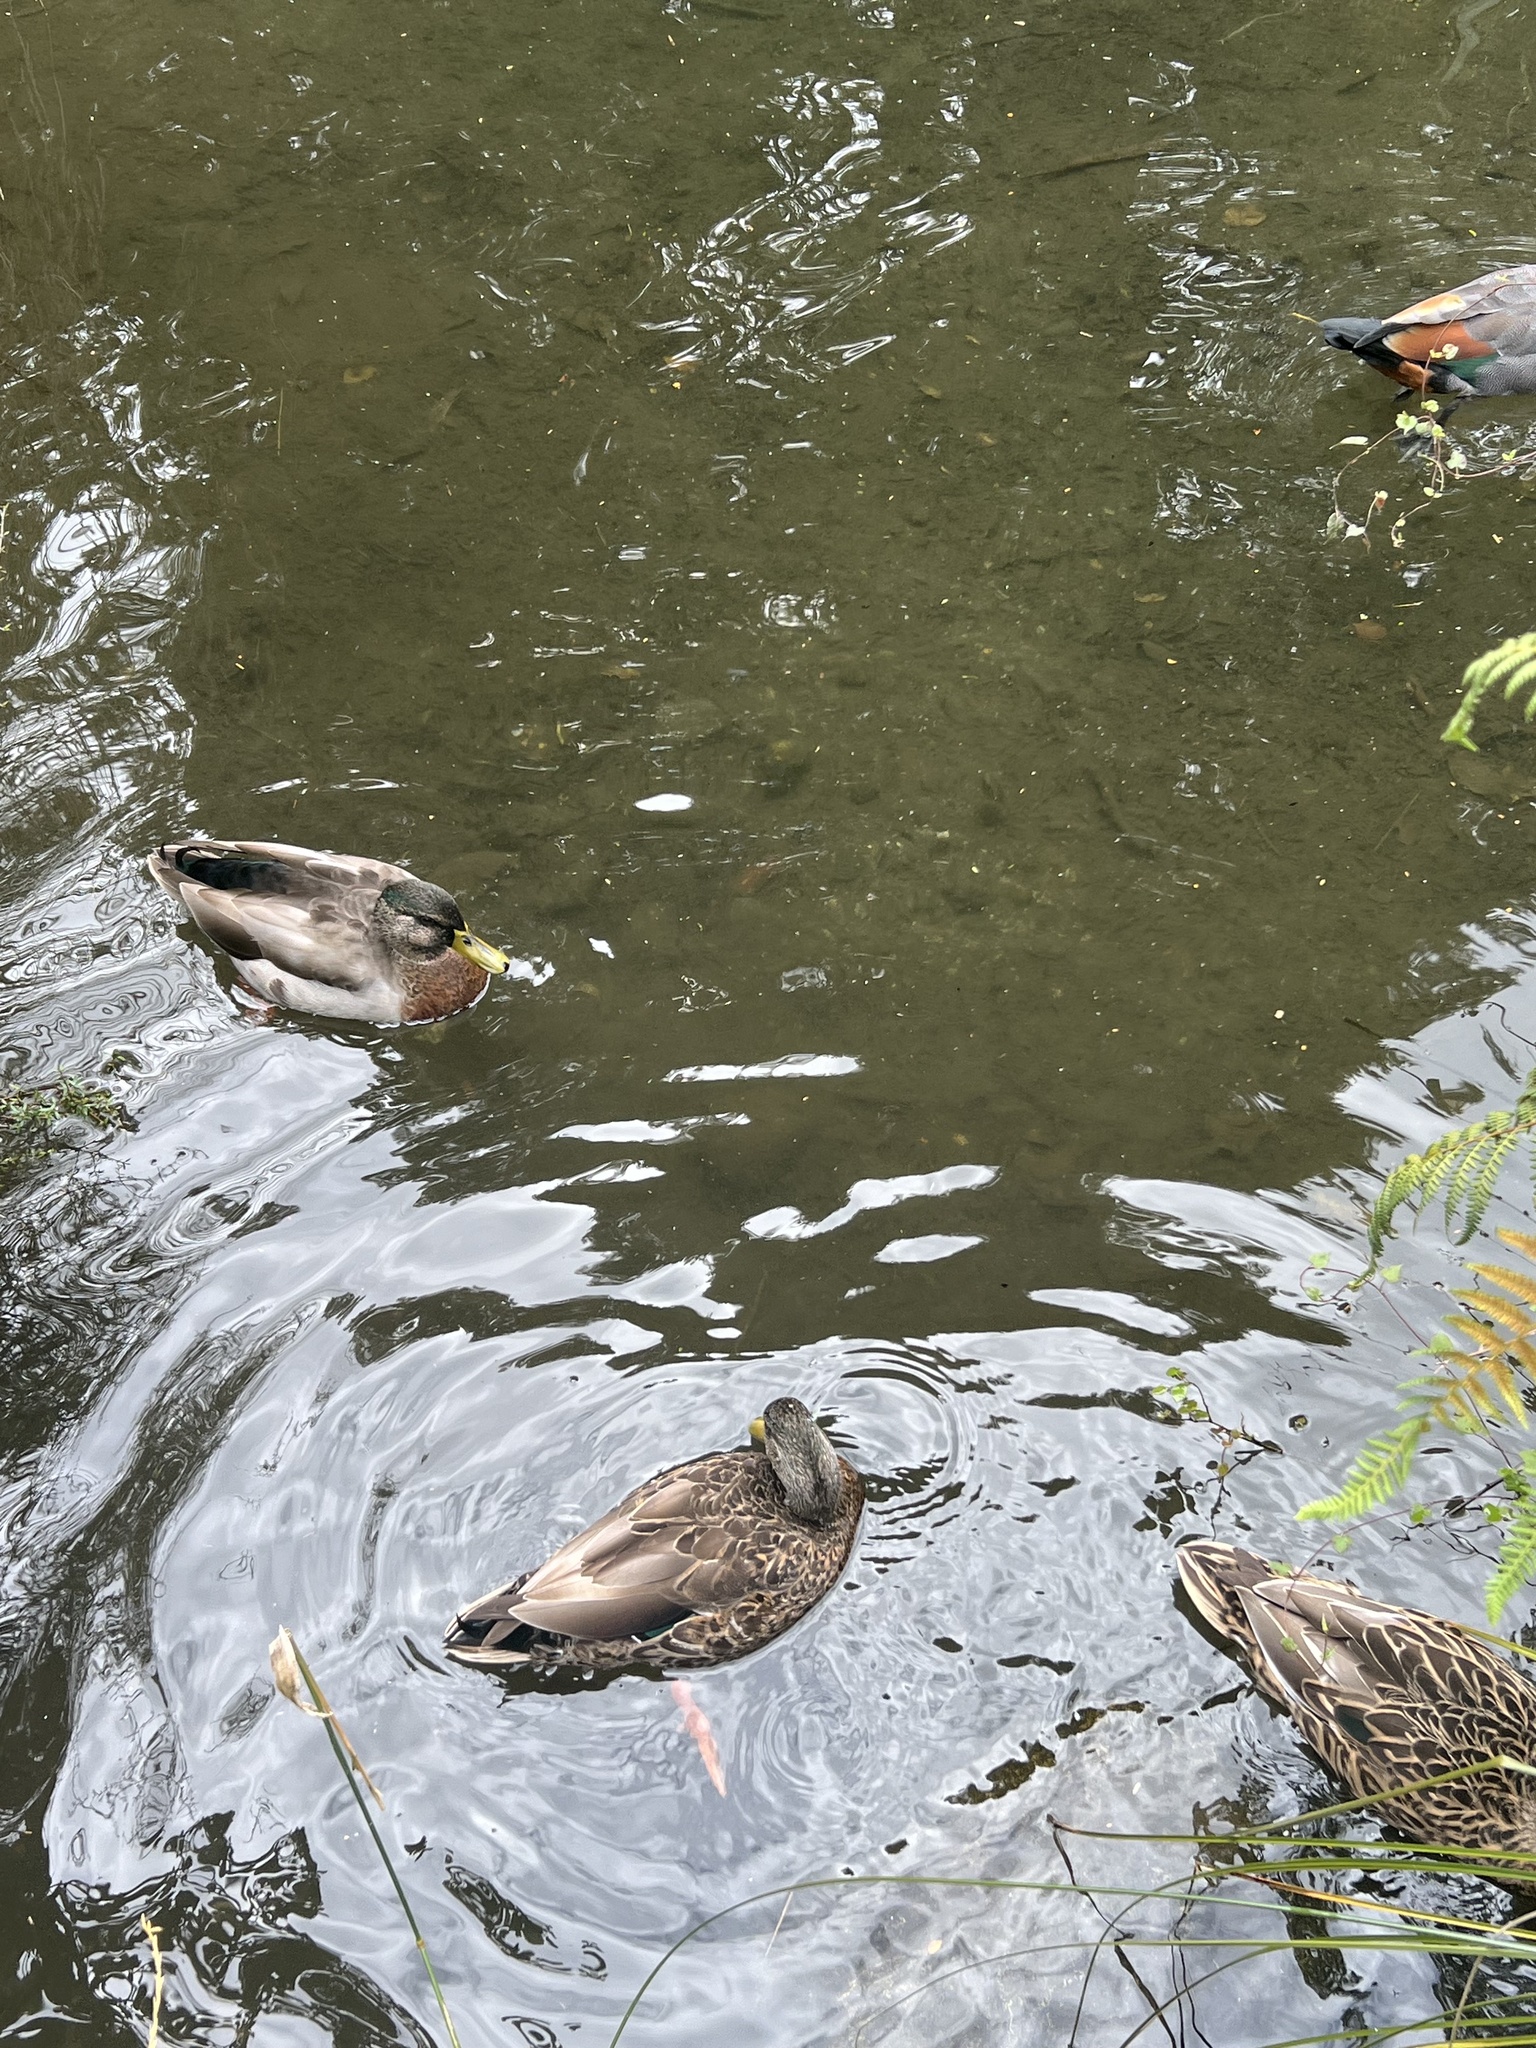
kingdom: Animalia
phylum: Chordata
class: Aves
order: Anseriformes
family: Anatidae
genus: Anas
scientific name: Anas
